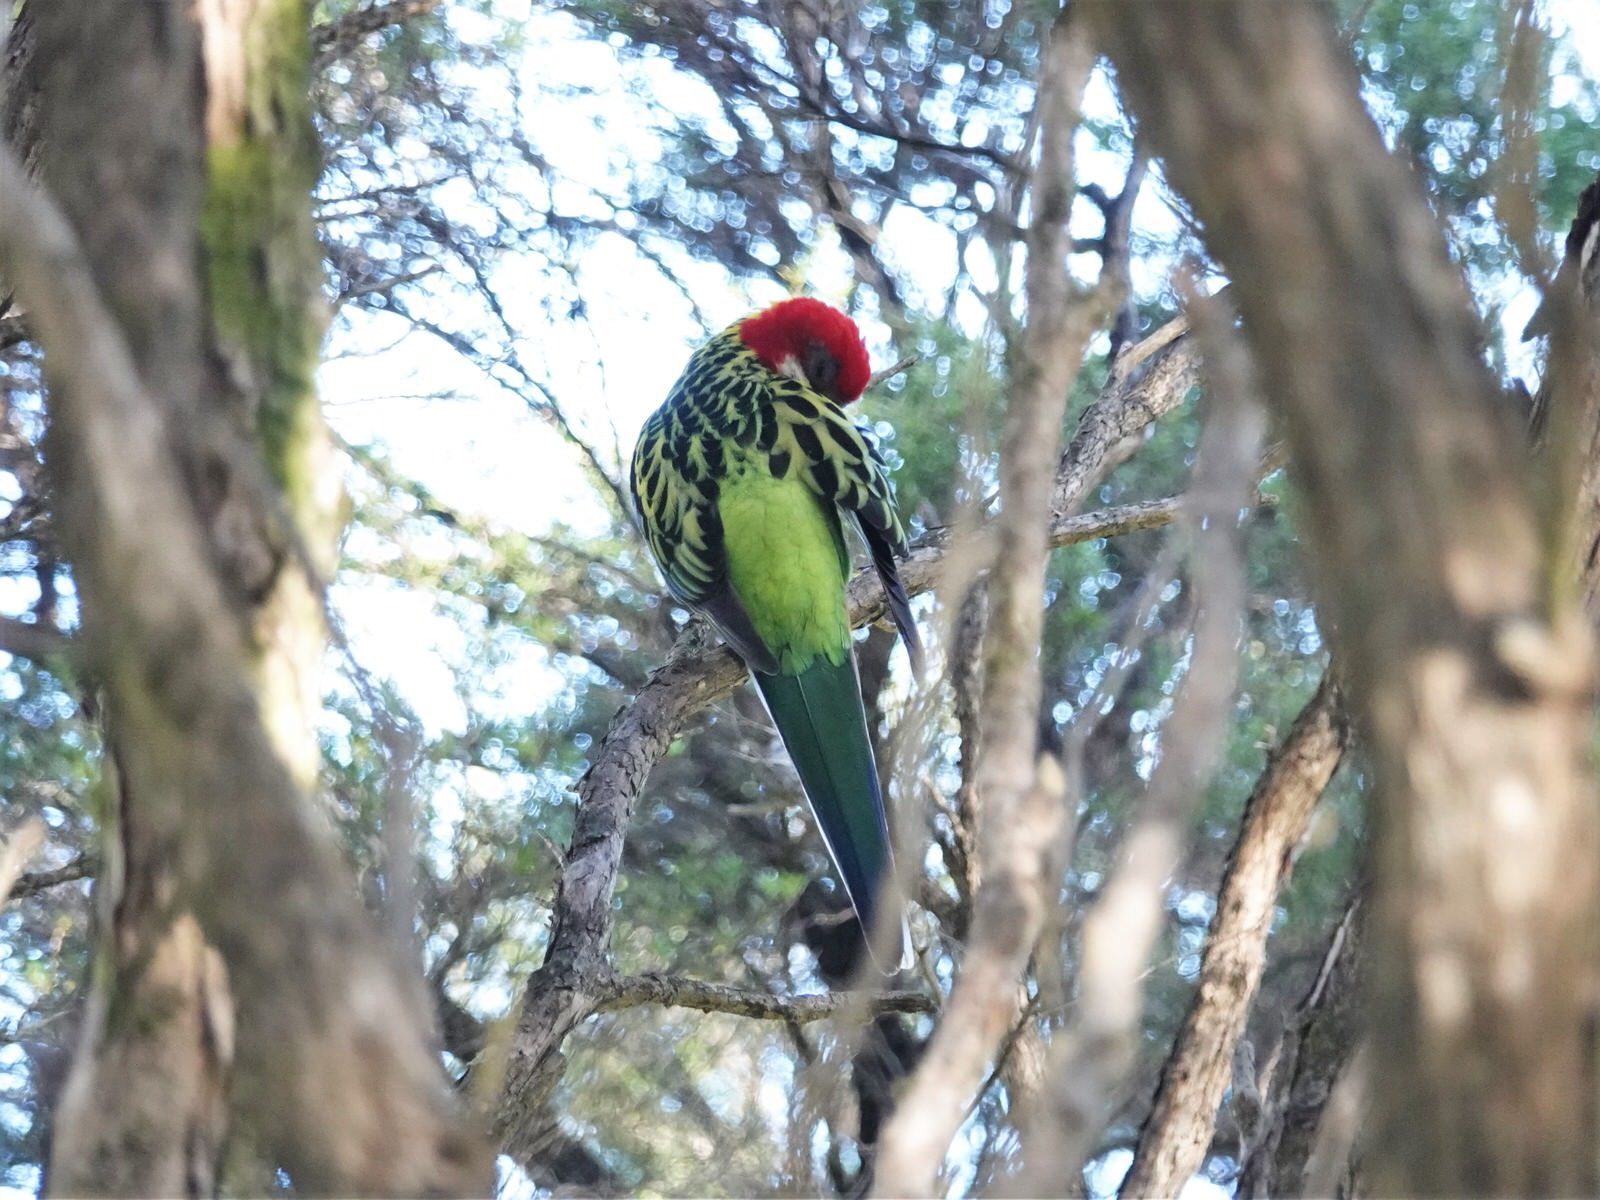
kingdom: Animalia
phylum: Chordata
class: Aves
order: Psittaciformes
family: Psittacidae
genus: Platycercus
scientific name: Platycercus eximius
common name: Eastern rosella
